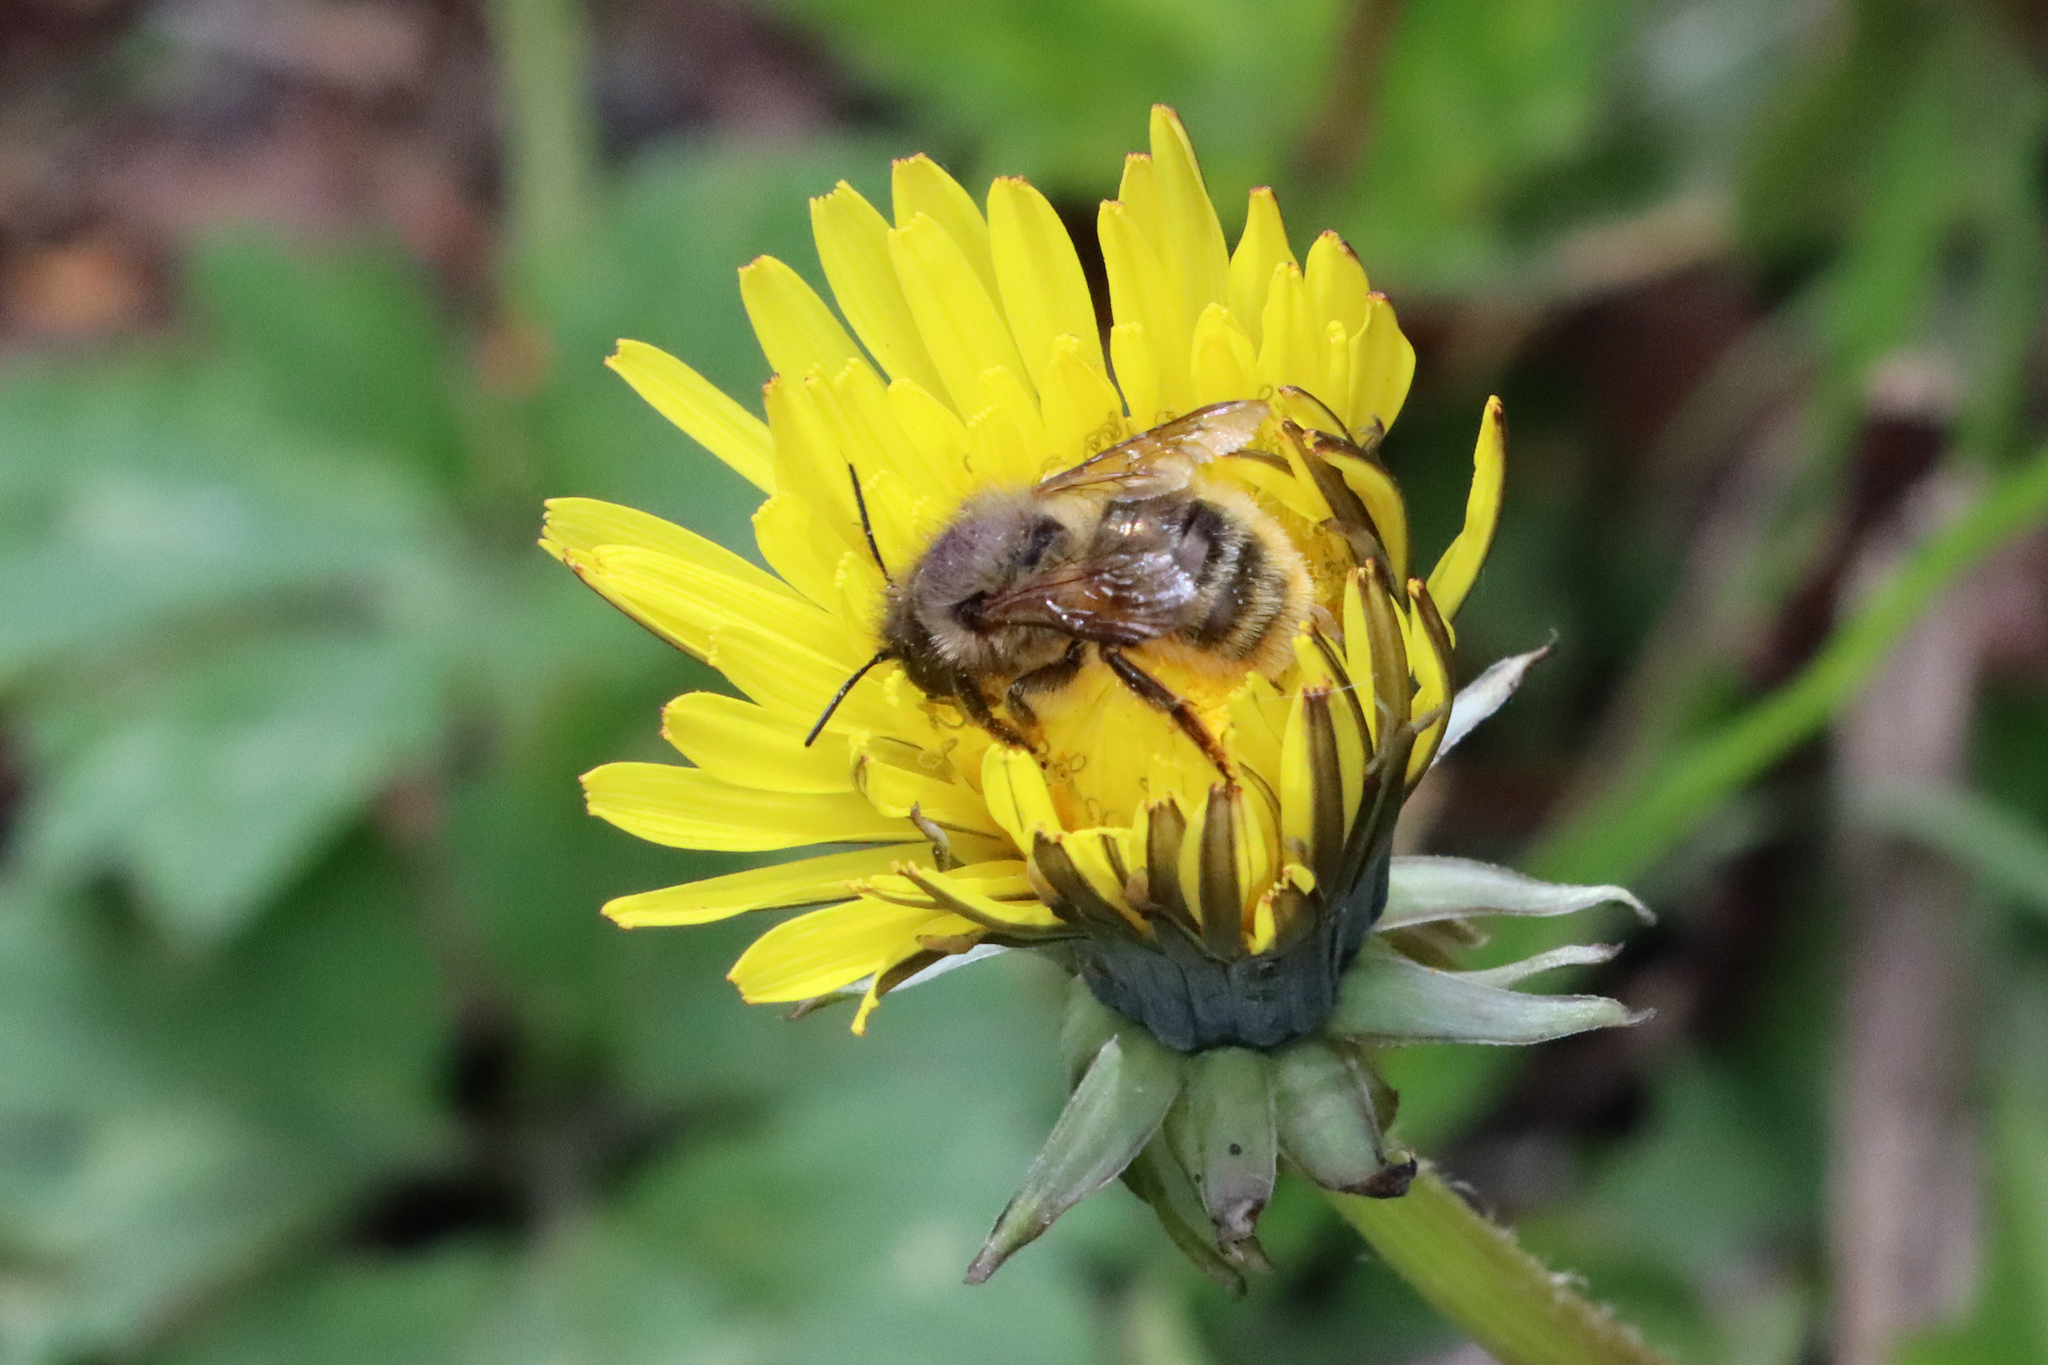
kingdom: Animalia
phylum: Arthropoda
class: Insecta
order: Hymenoptera
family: Megachilidae
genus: Osmia
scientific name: Osmia bicornis
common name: Red mason bee
